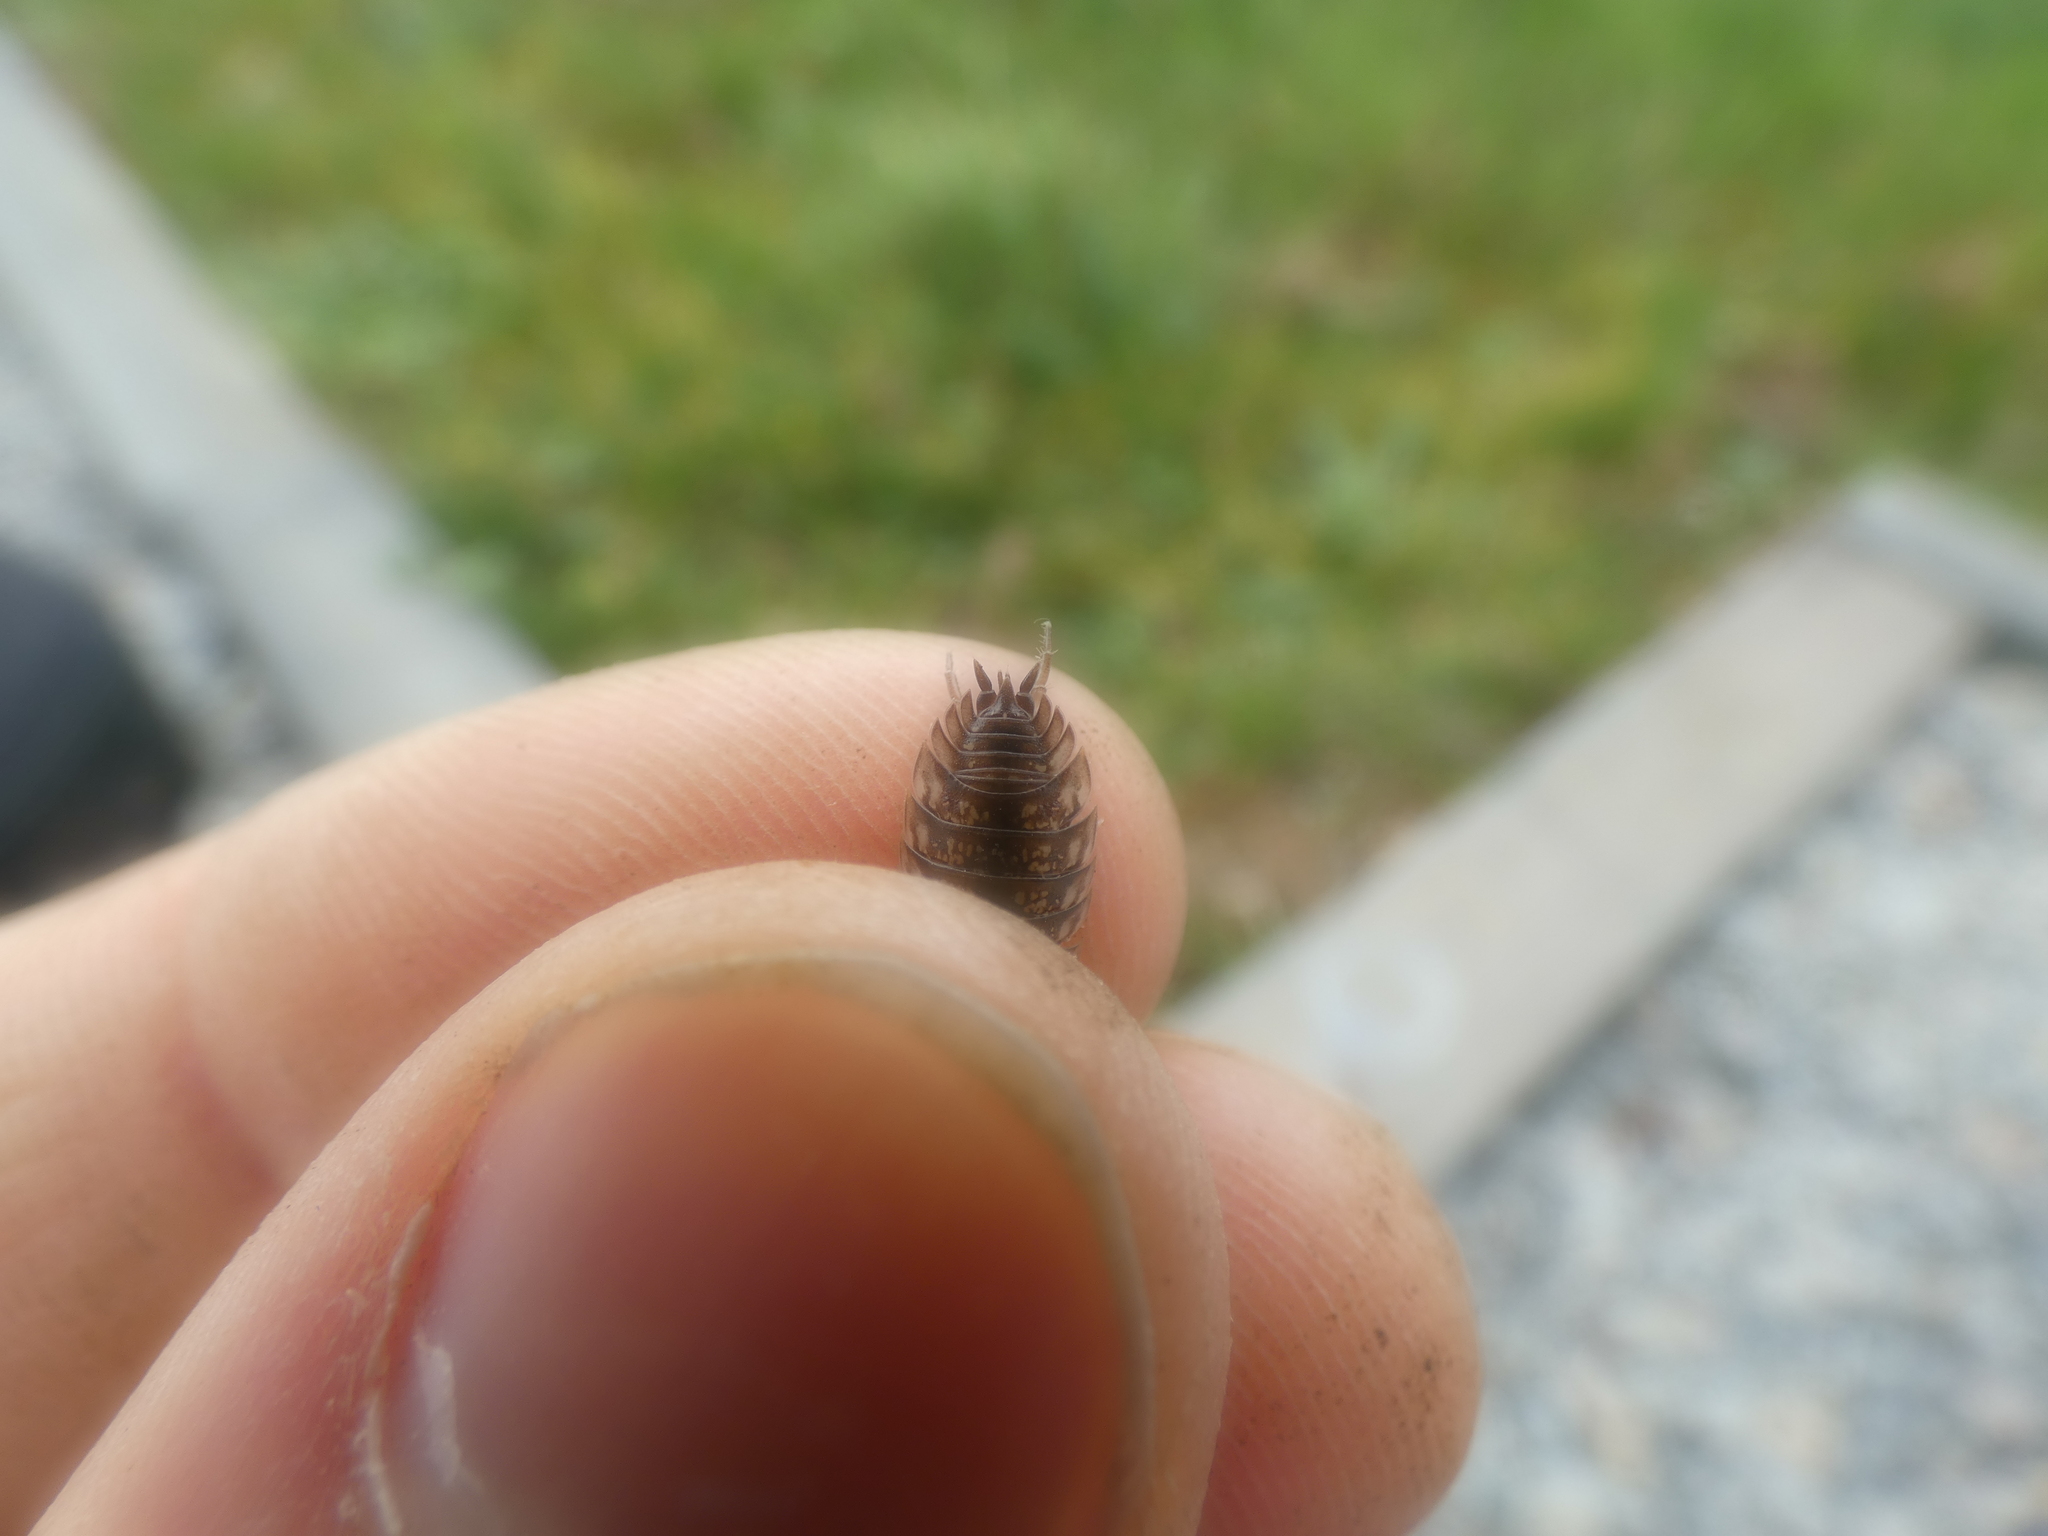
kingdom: Animalia
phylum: Arthropoda
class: Malacostraca
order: Isopoda
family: Oniscidae
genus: Oniscus
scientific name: Oniscus asellus
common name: Common shiny woodlouse
